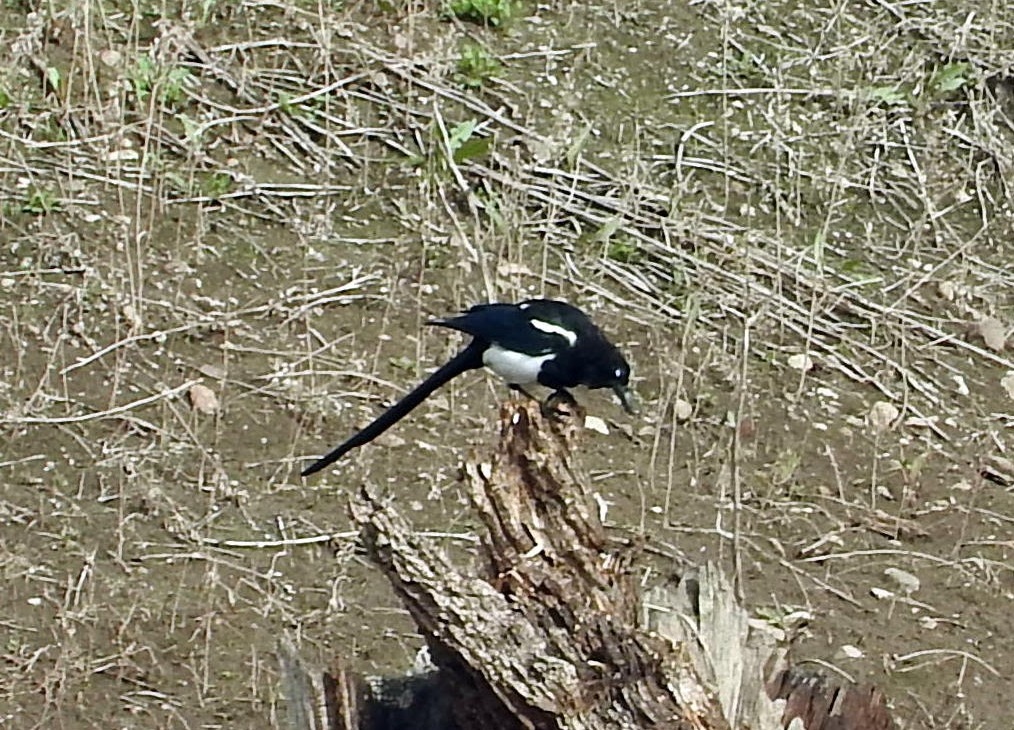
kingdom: Animalia
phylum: Chordata
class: Aves
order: Passeriformes
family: Corvidae
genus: Pica
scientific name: Pica hudsonia
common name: Black-billed magpie
